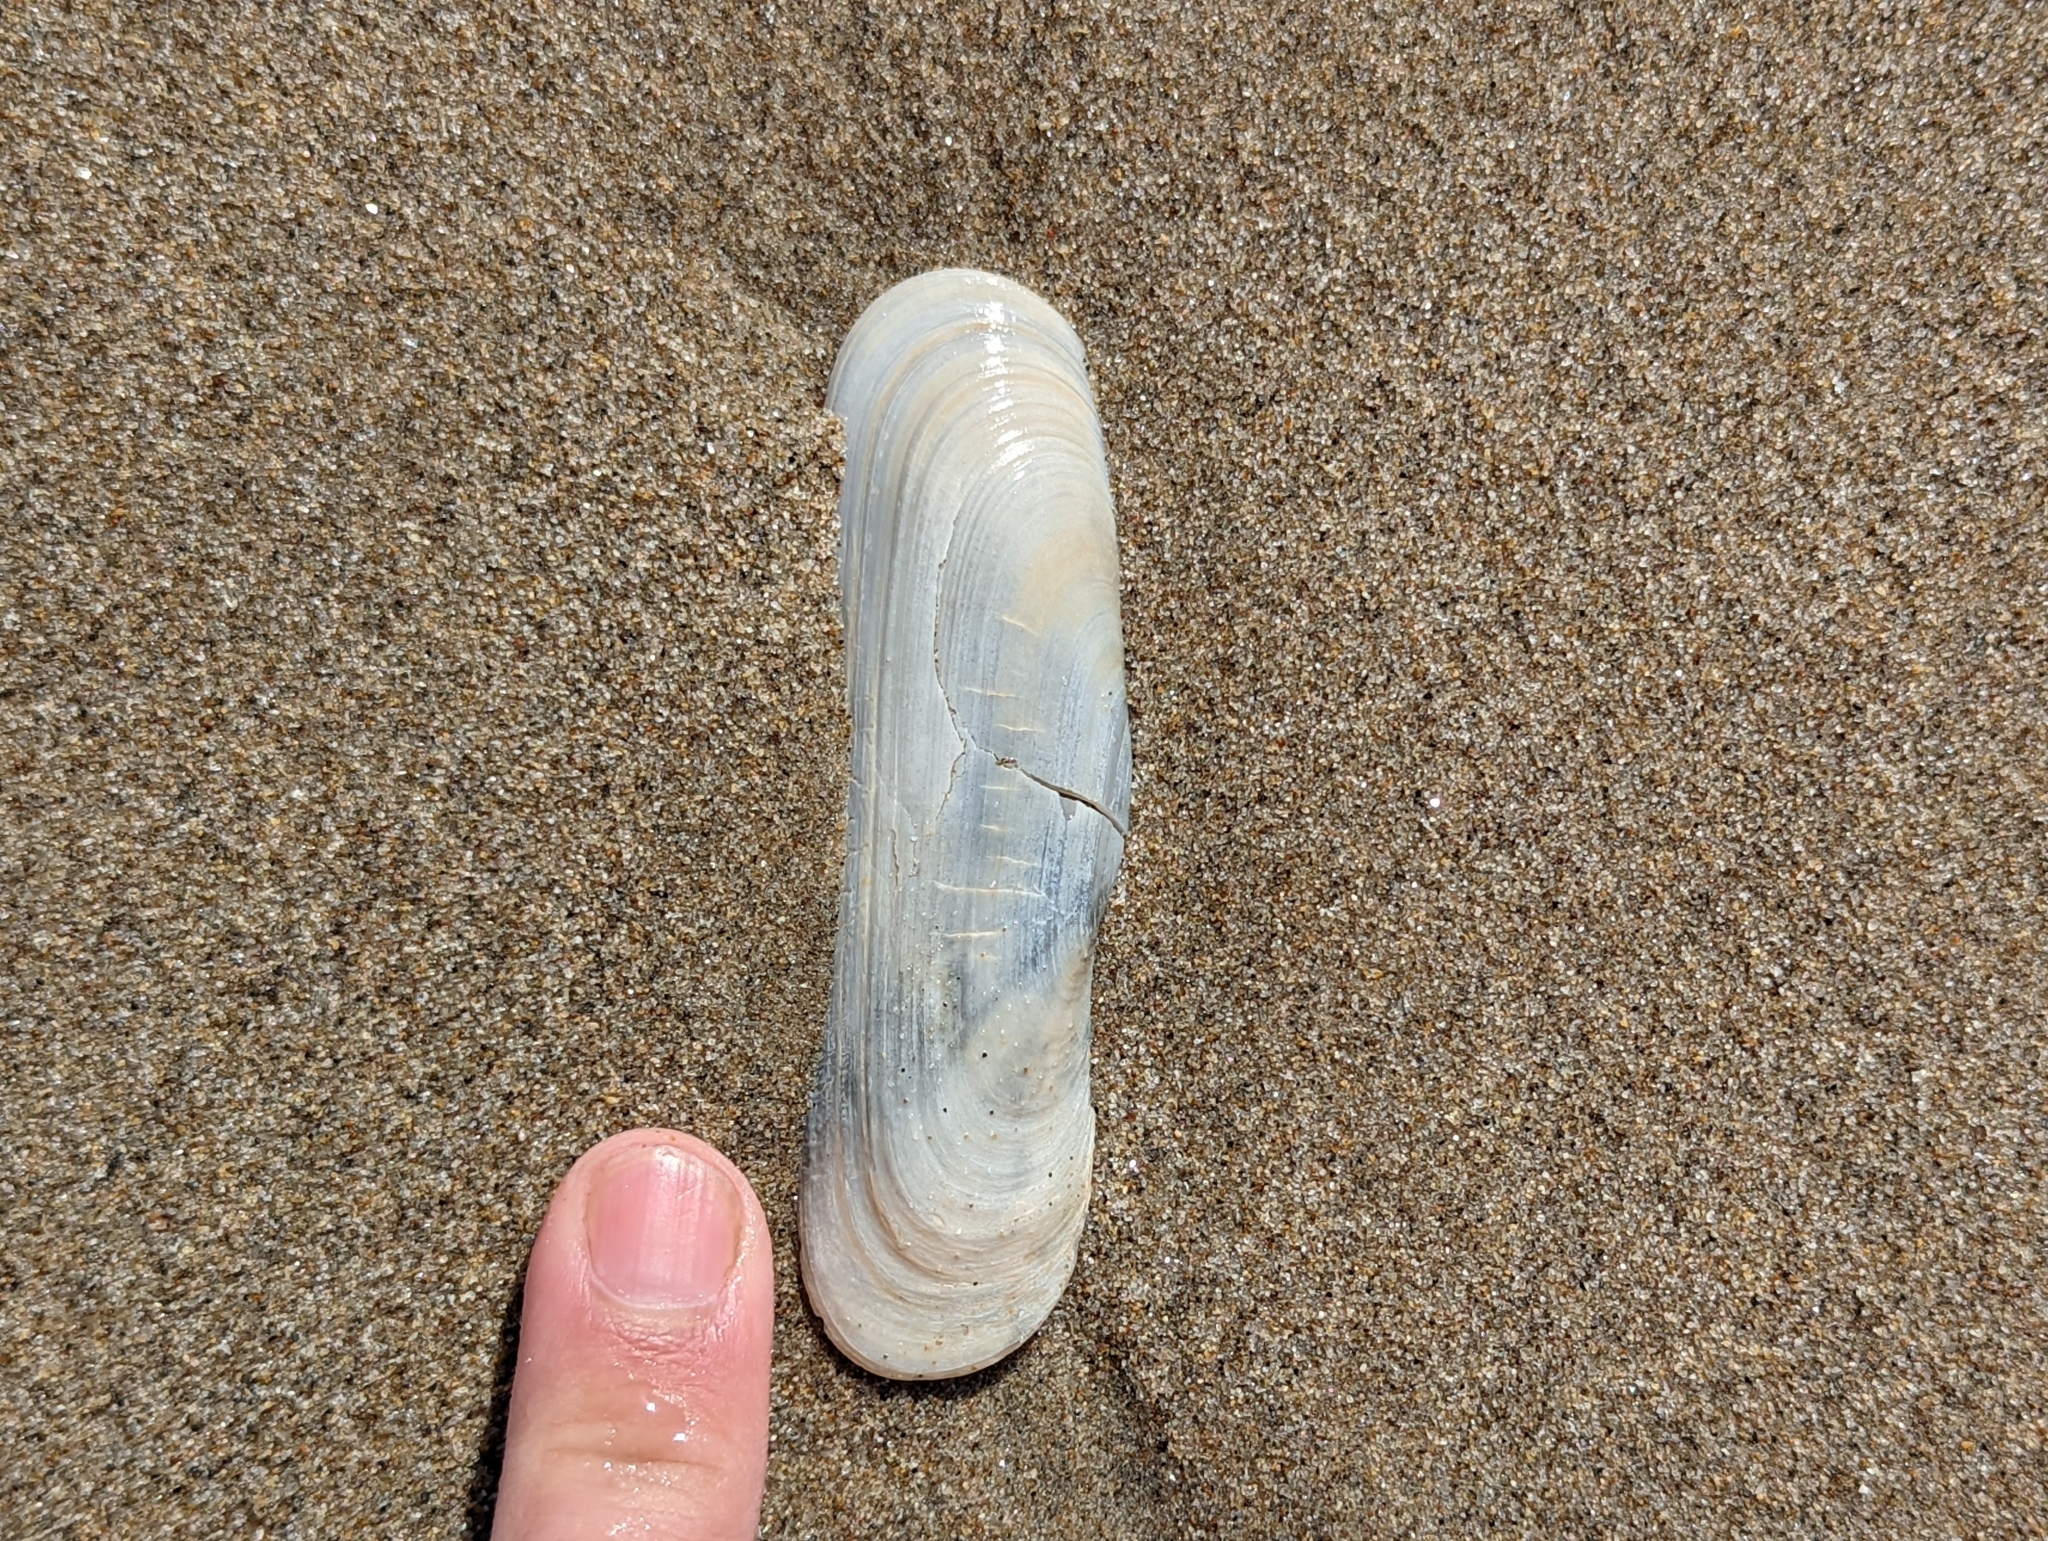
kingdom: Animalia
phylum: Mollusca
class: Bivalvia
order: Cardiida
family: Solecurtidae
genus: Tagelus
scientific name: Tagelus californianus
